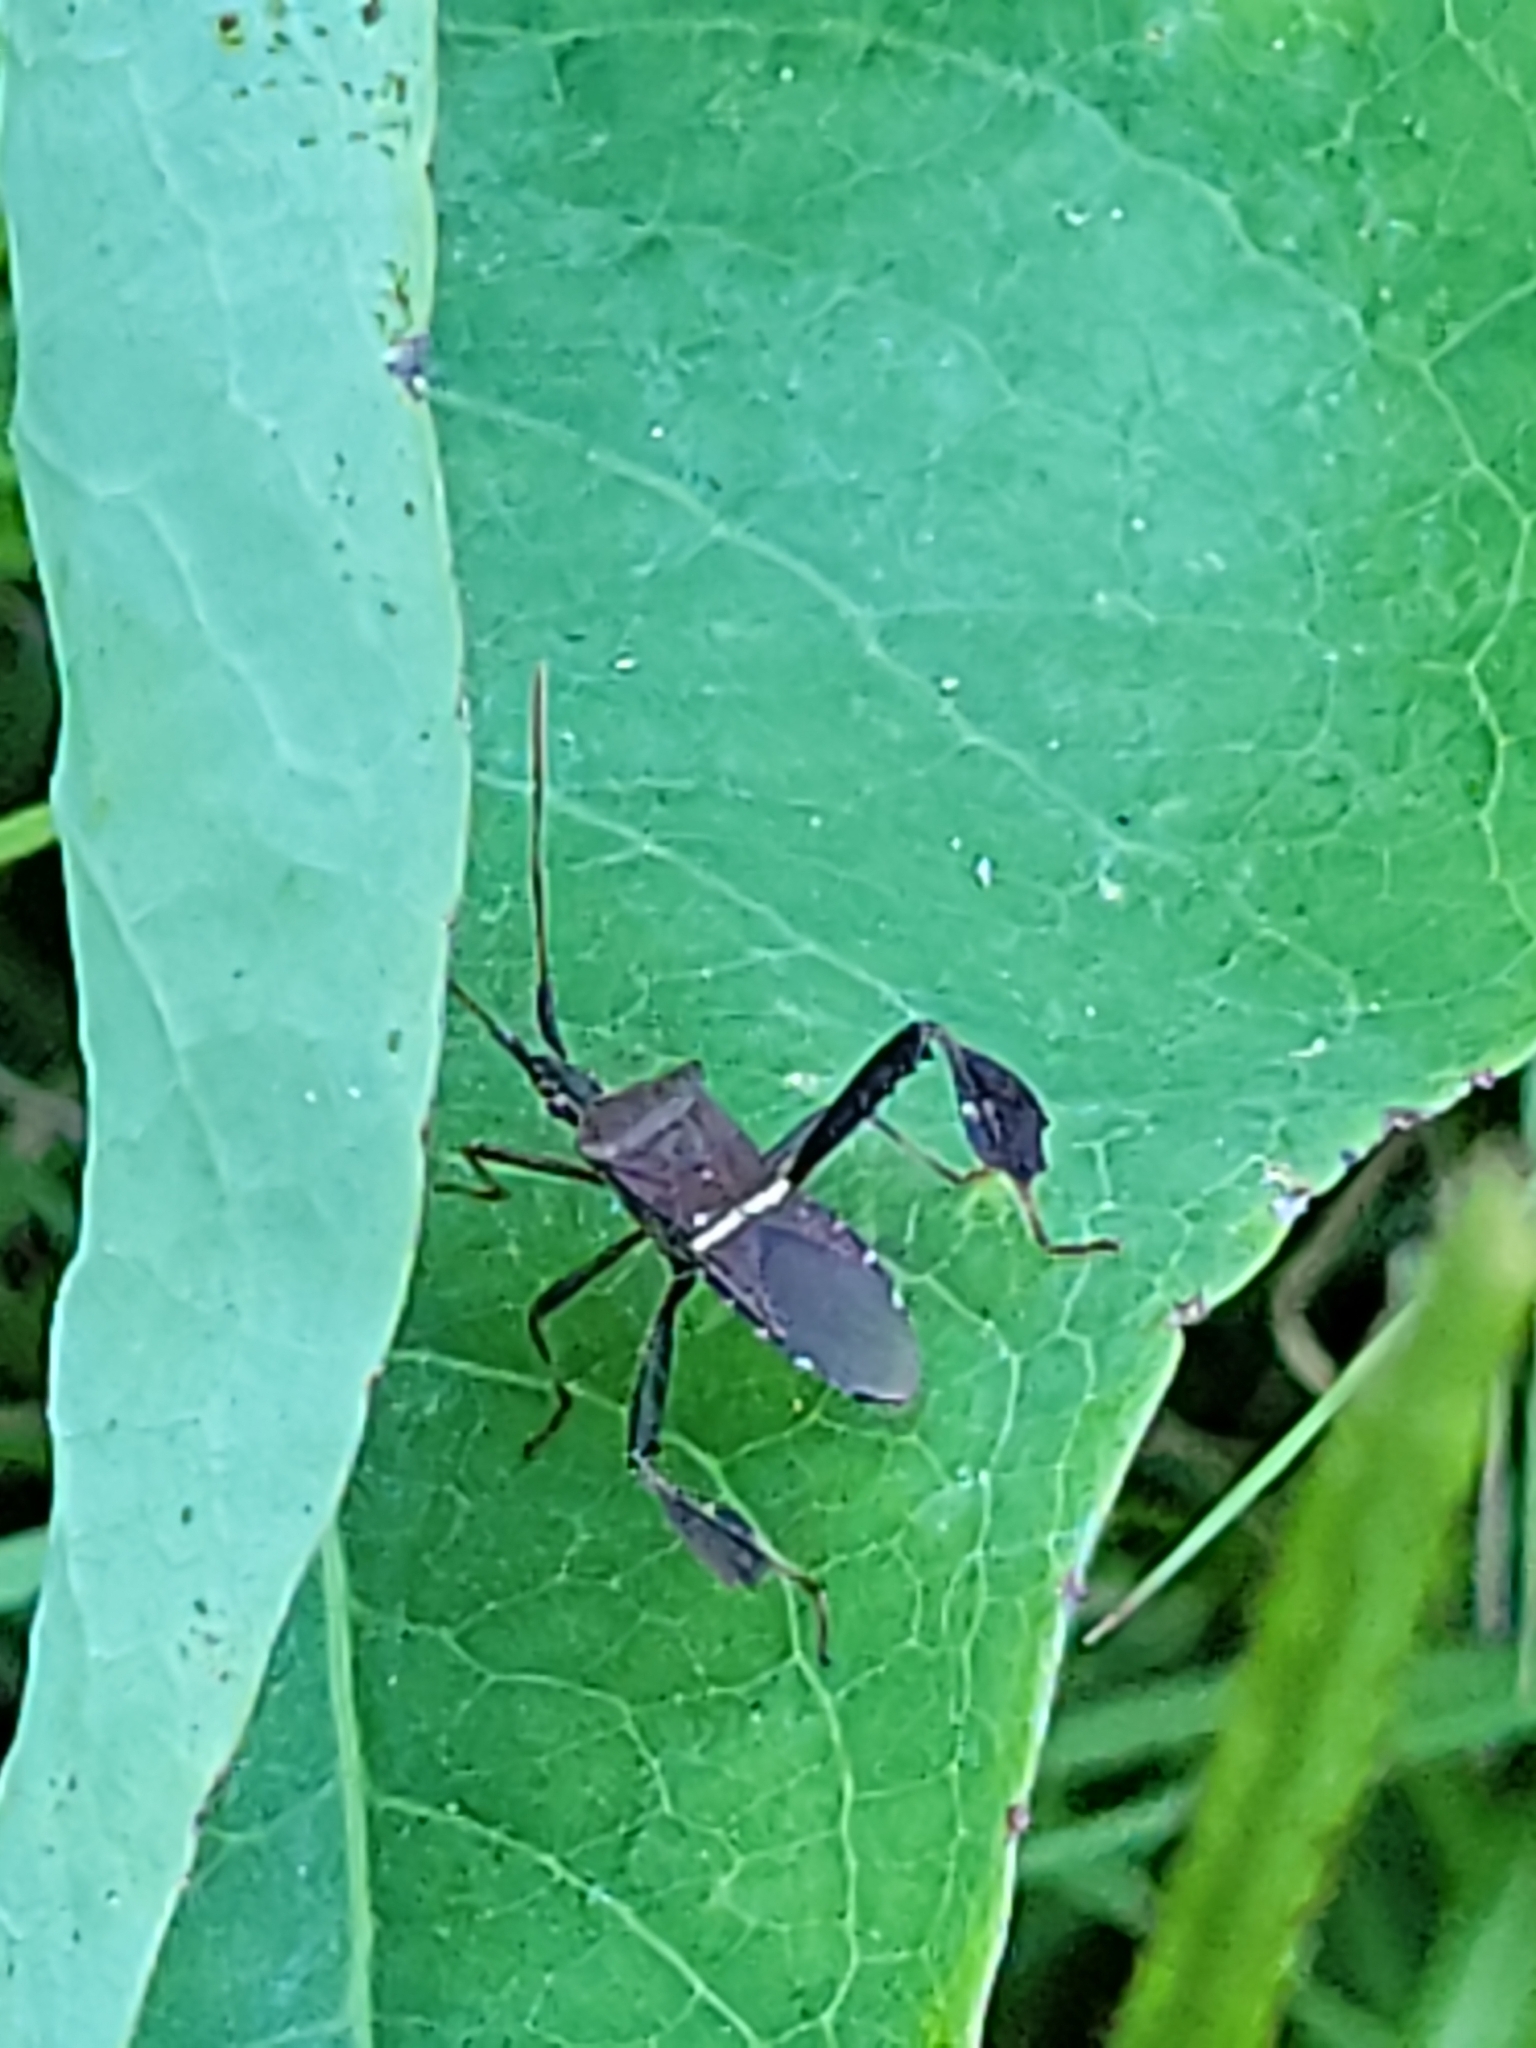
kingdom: Animalia
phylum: Arthropoda
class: Insecta
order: Hemiptera
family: Coreidae
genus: Leptoglossus
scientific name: Leptoglossus phyllopus
